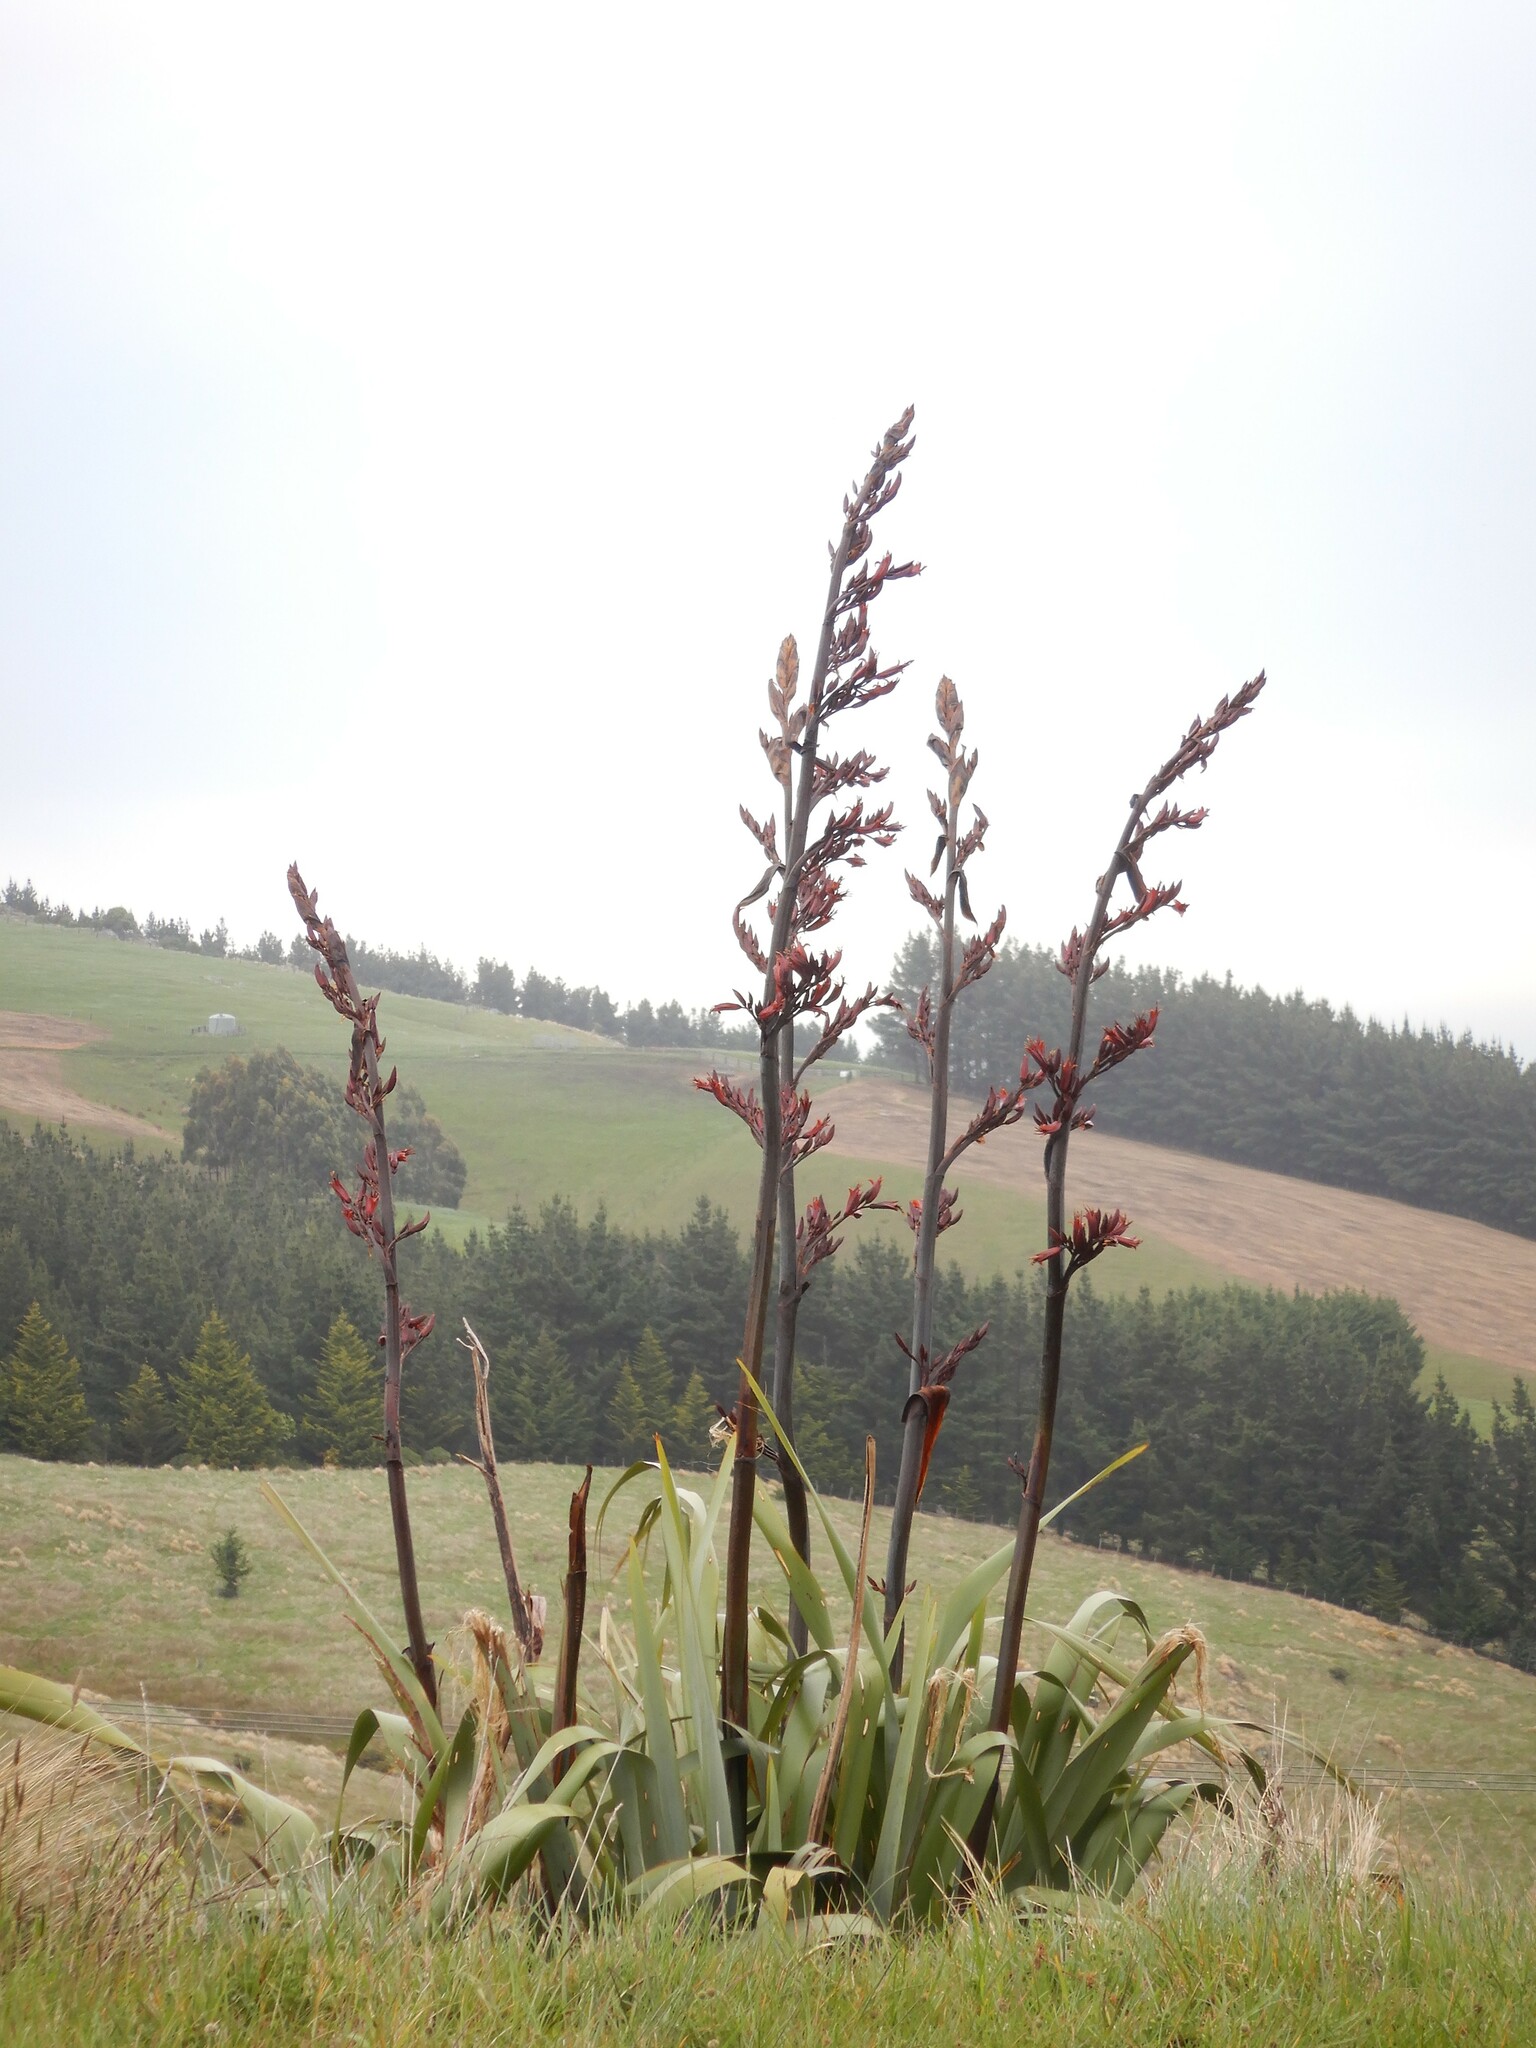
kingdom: Plantae
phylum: Tracheophyta
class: Liliopsida
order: Asparagales
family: Asphodelaceae
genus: Phormium
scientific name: Phormium tenax
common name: New zealand flax
